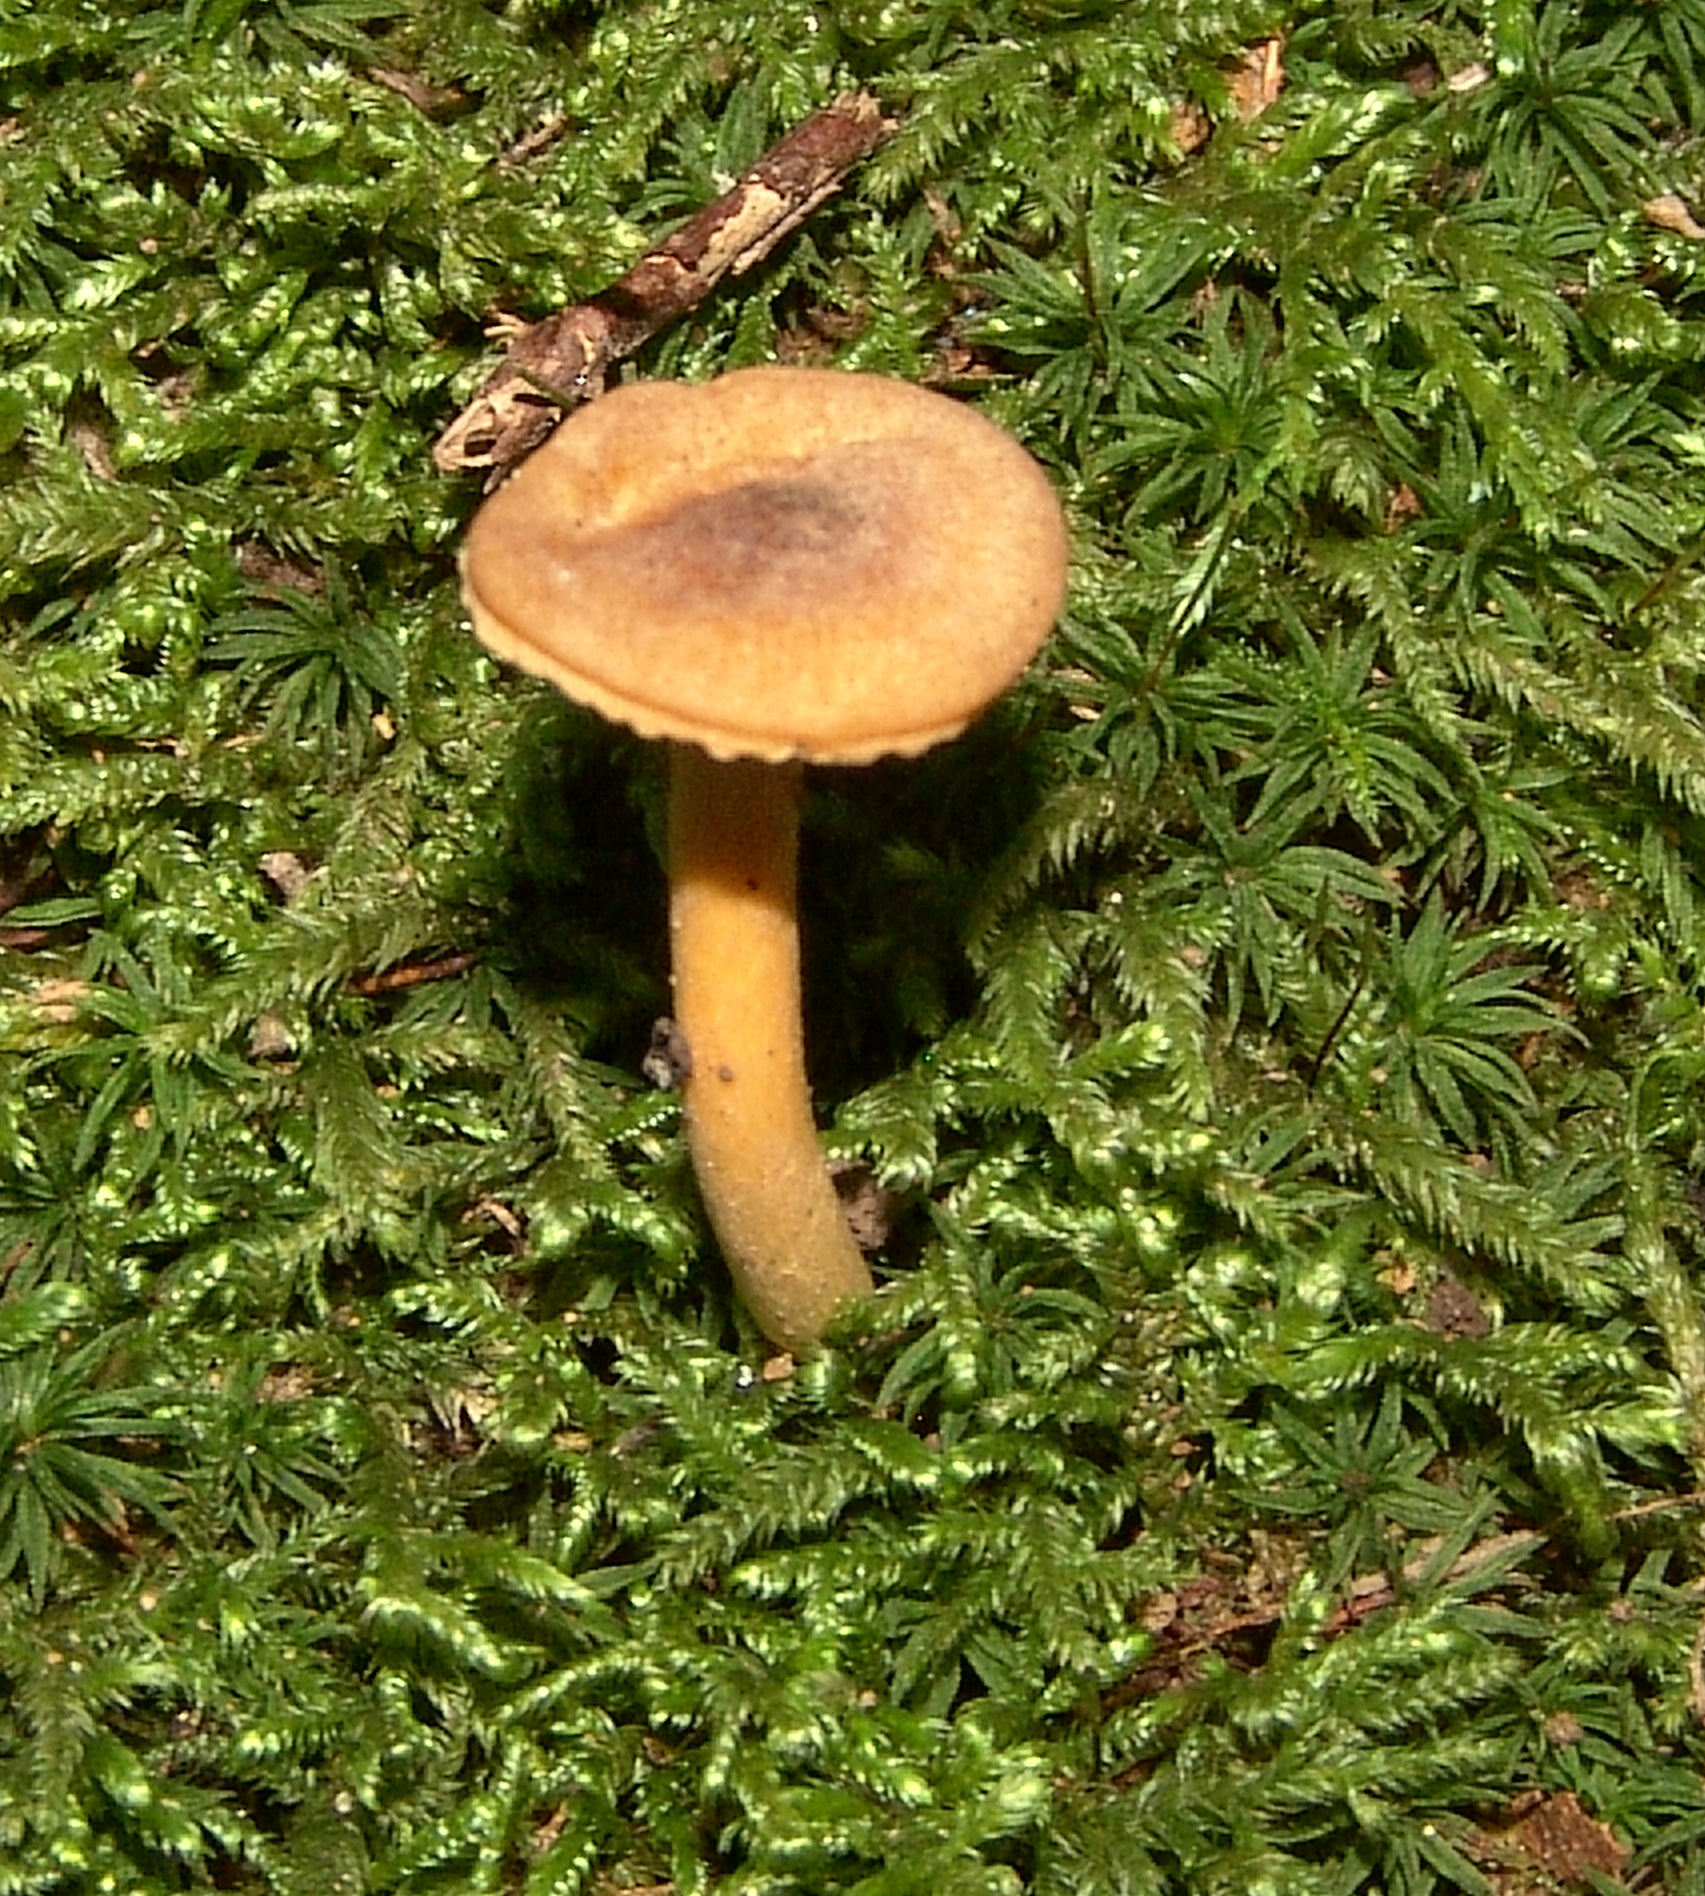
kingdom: Fungi
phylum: Basidiomycota
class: Agaricomycetes
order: Cantharellales
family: Hydnaceae
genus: Cantharellus
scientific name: Cantharellus appalachiensis
